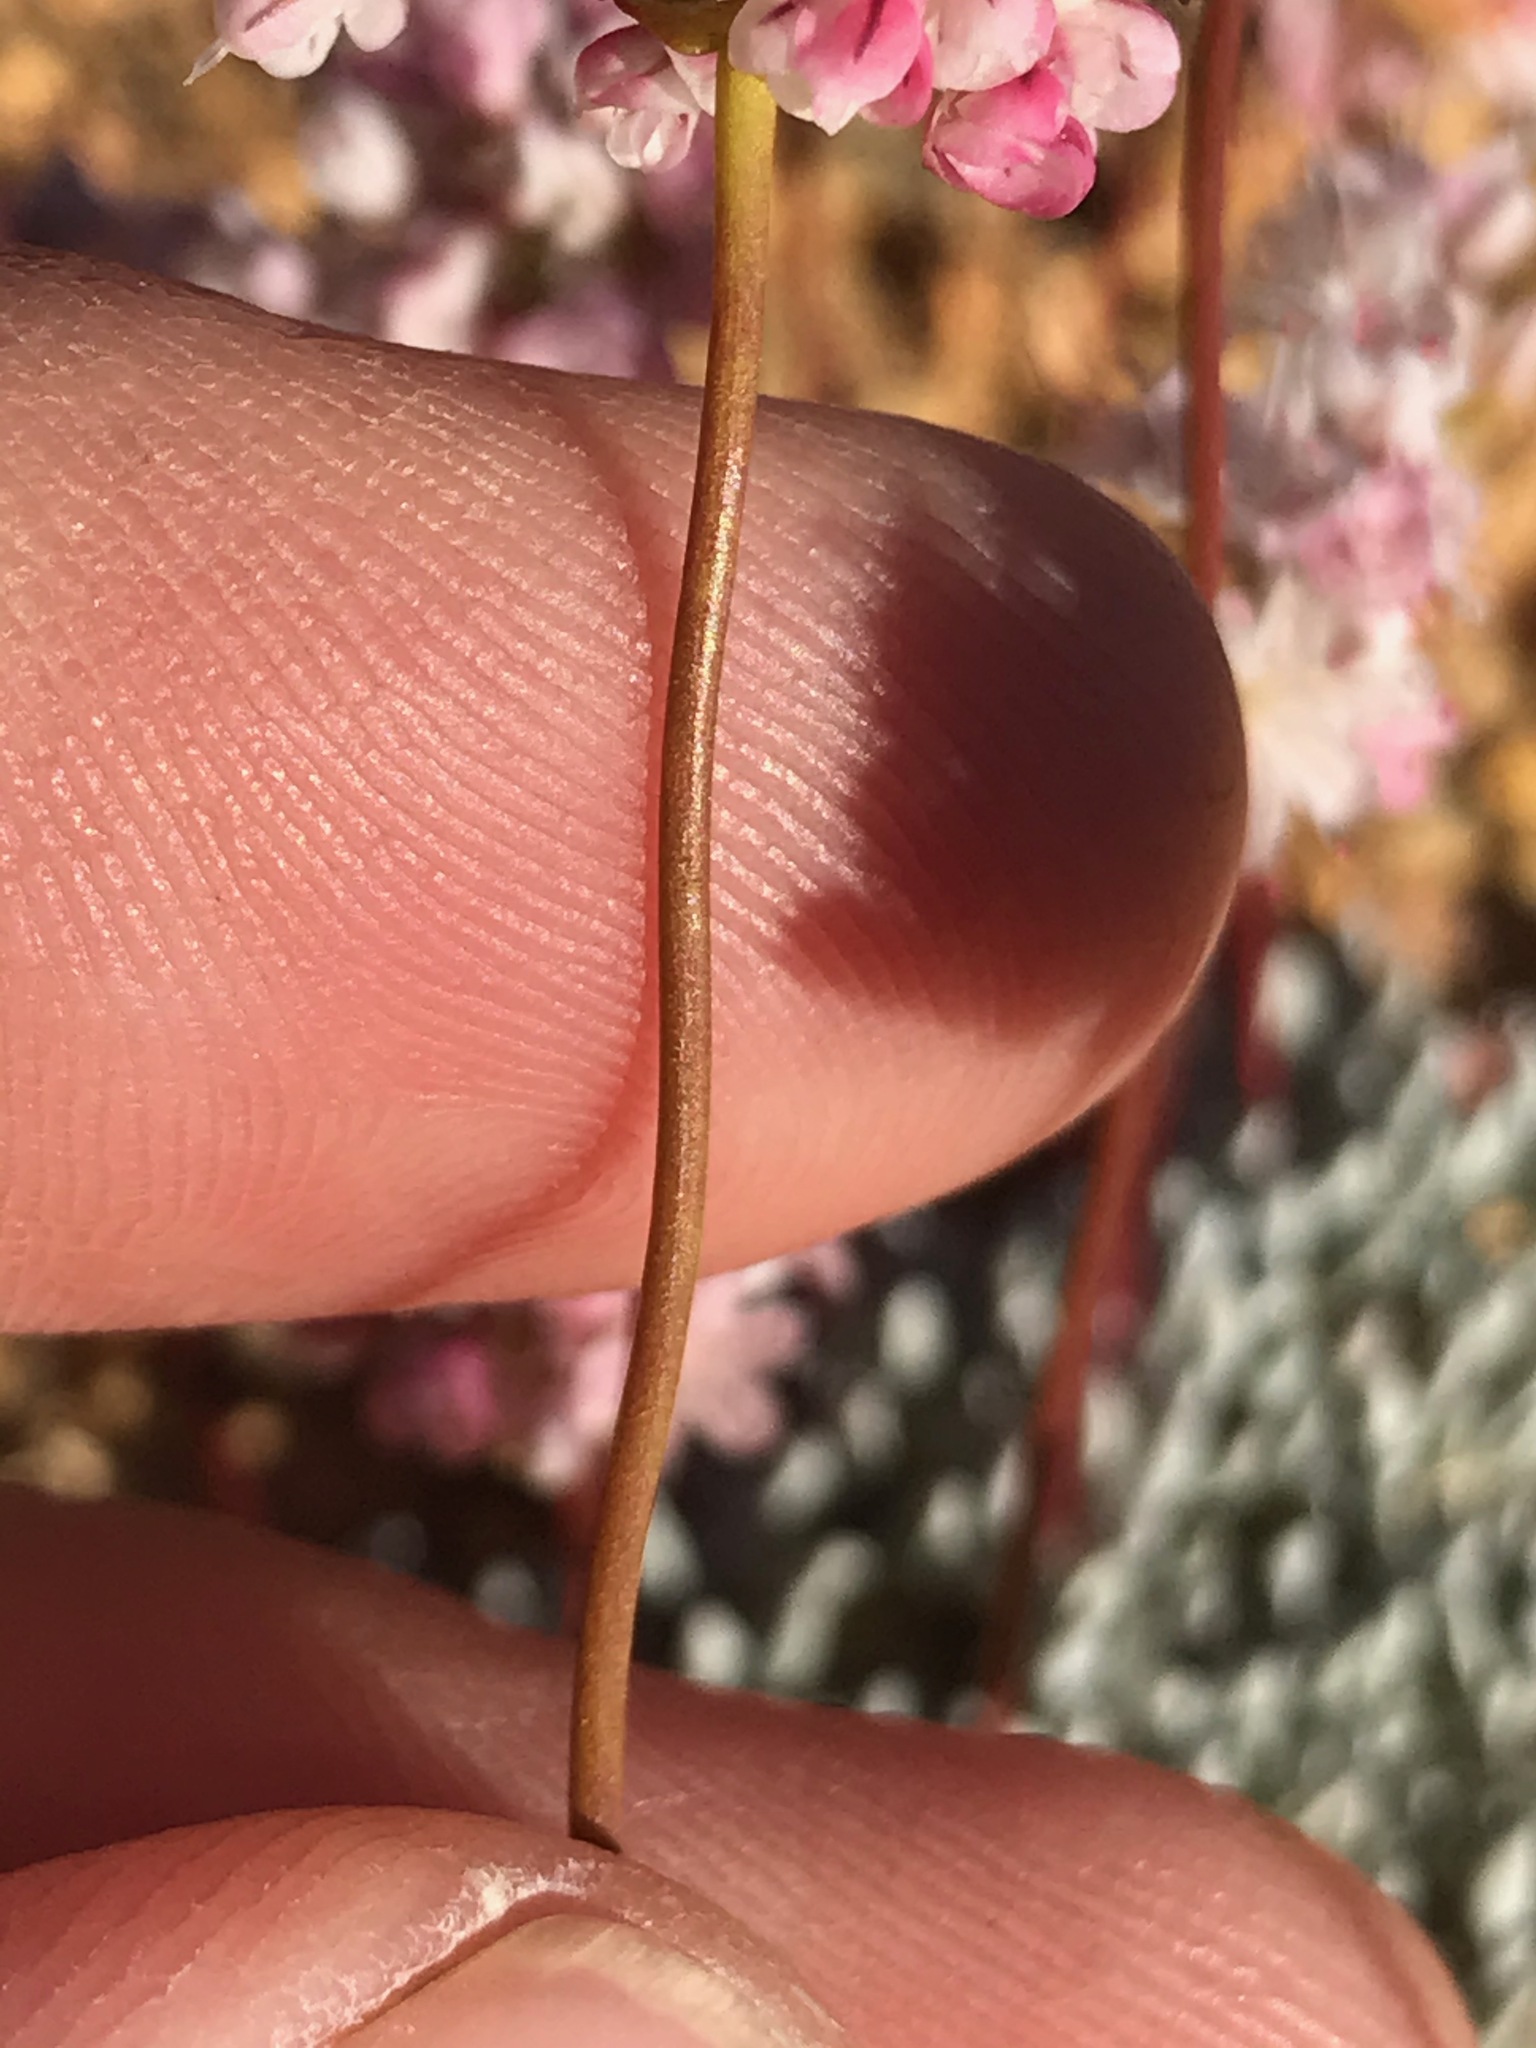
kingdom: Plantae
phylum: Tracheophyta
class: Magnoliopsida
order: Caryophyllales
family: Polygonaceae
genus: Eriogonum
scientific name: Eriogonum kennedyi
